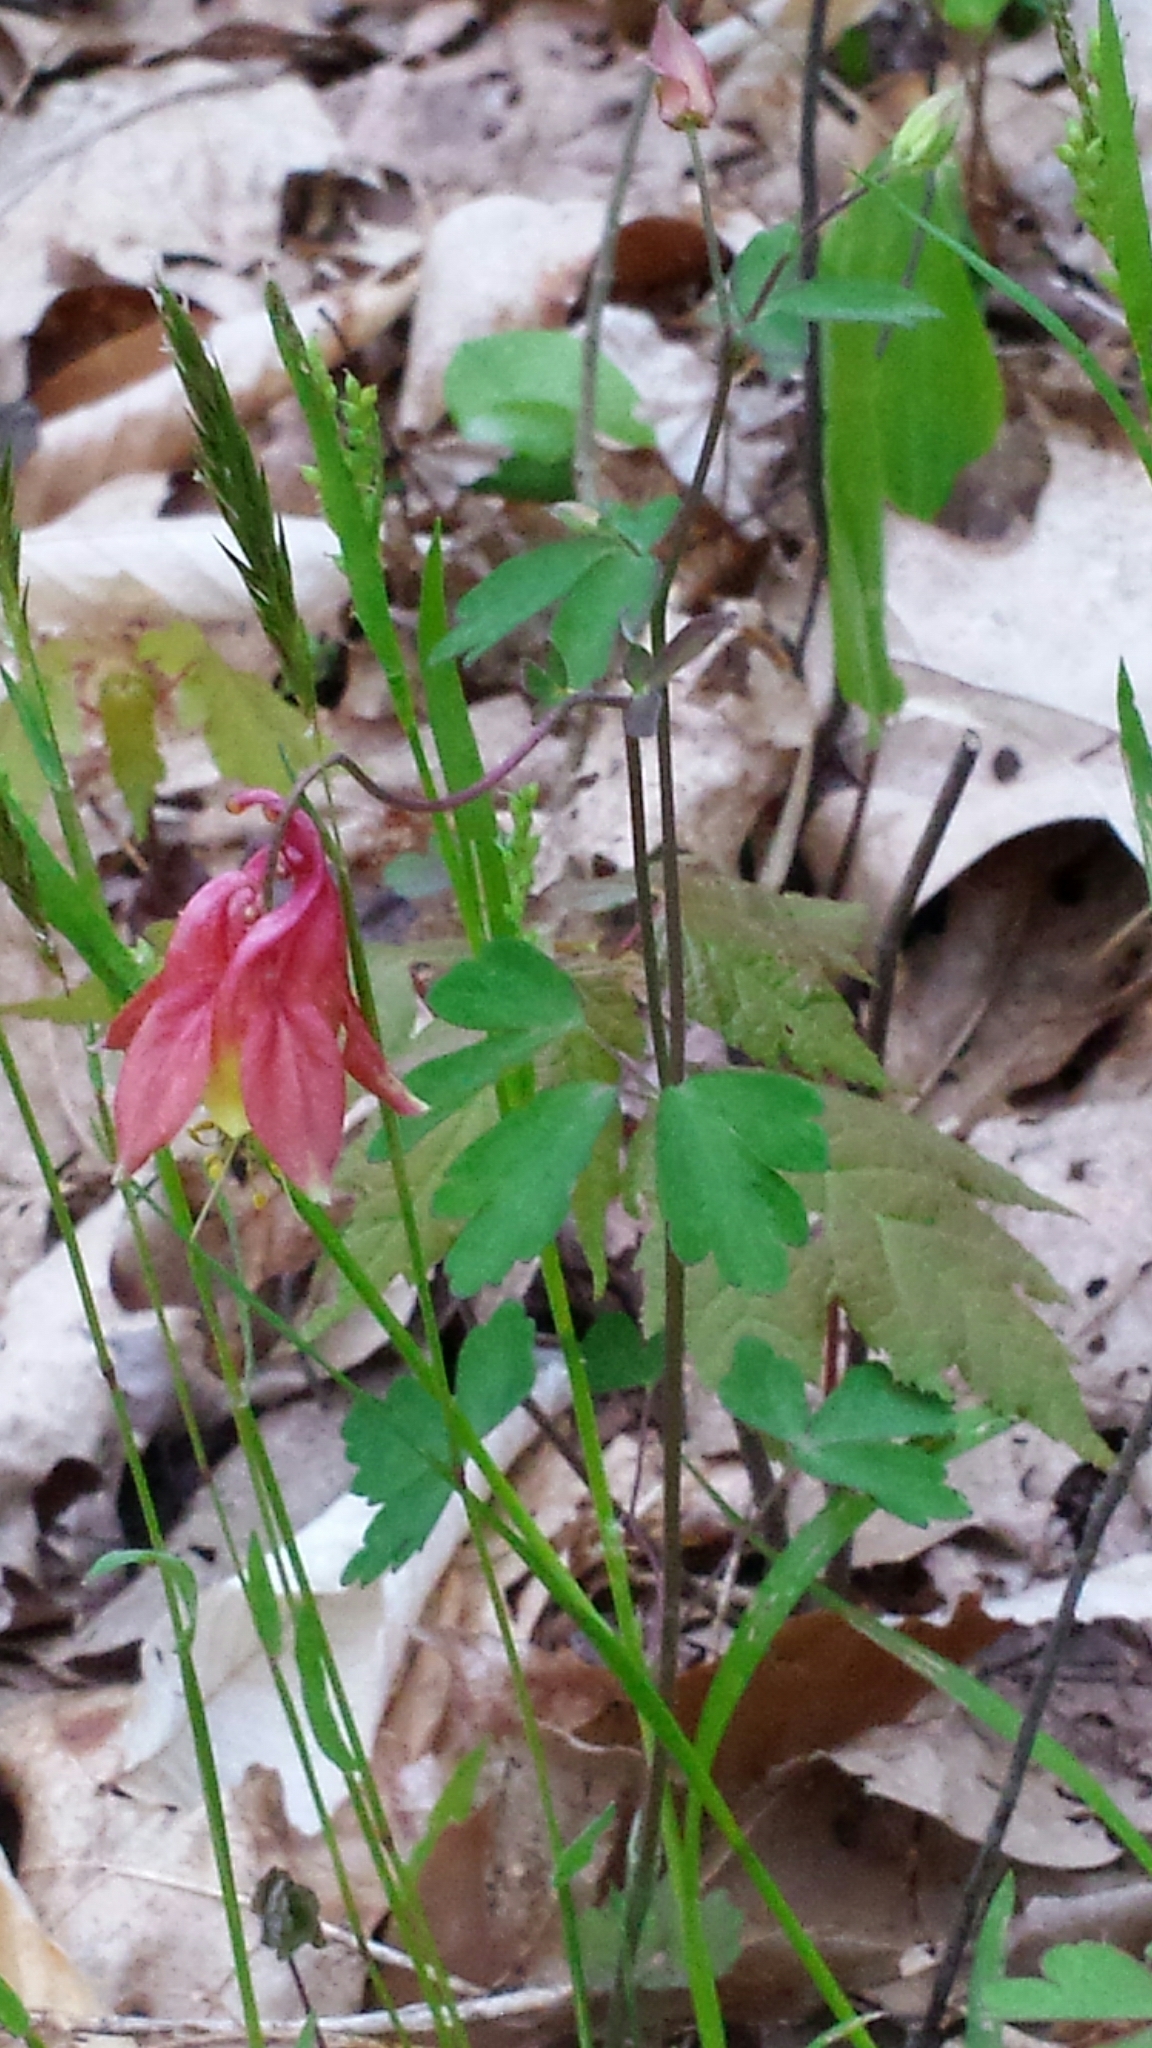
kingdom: Plantae
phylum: Tracheophyta
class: Magnoliopsida
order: Ranunculales
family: Ranunculaceae
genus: Aquilegia
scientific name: Aquilegia canadensis
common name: American columbine
